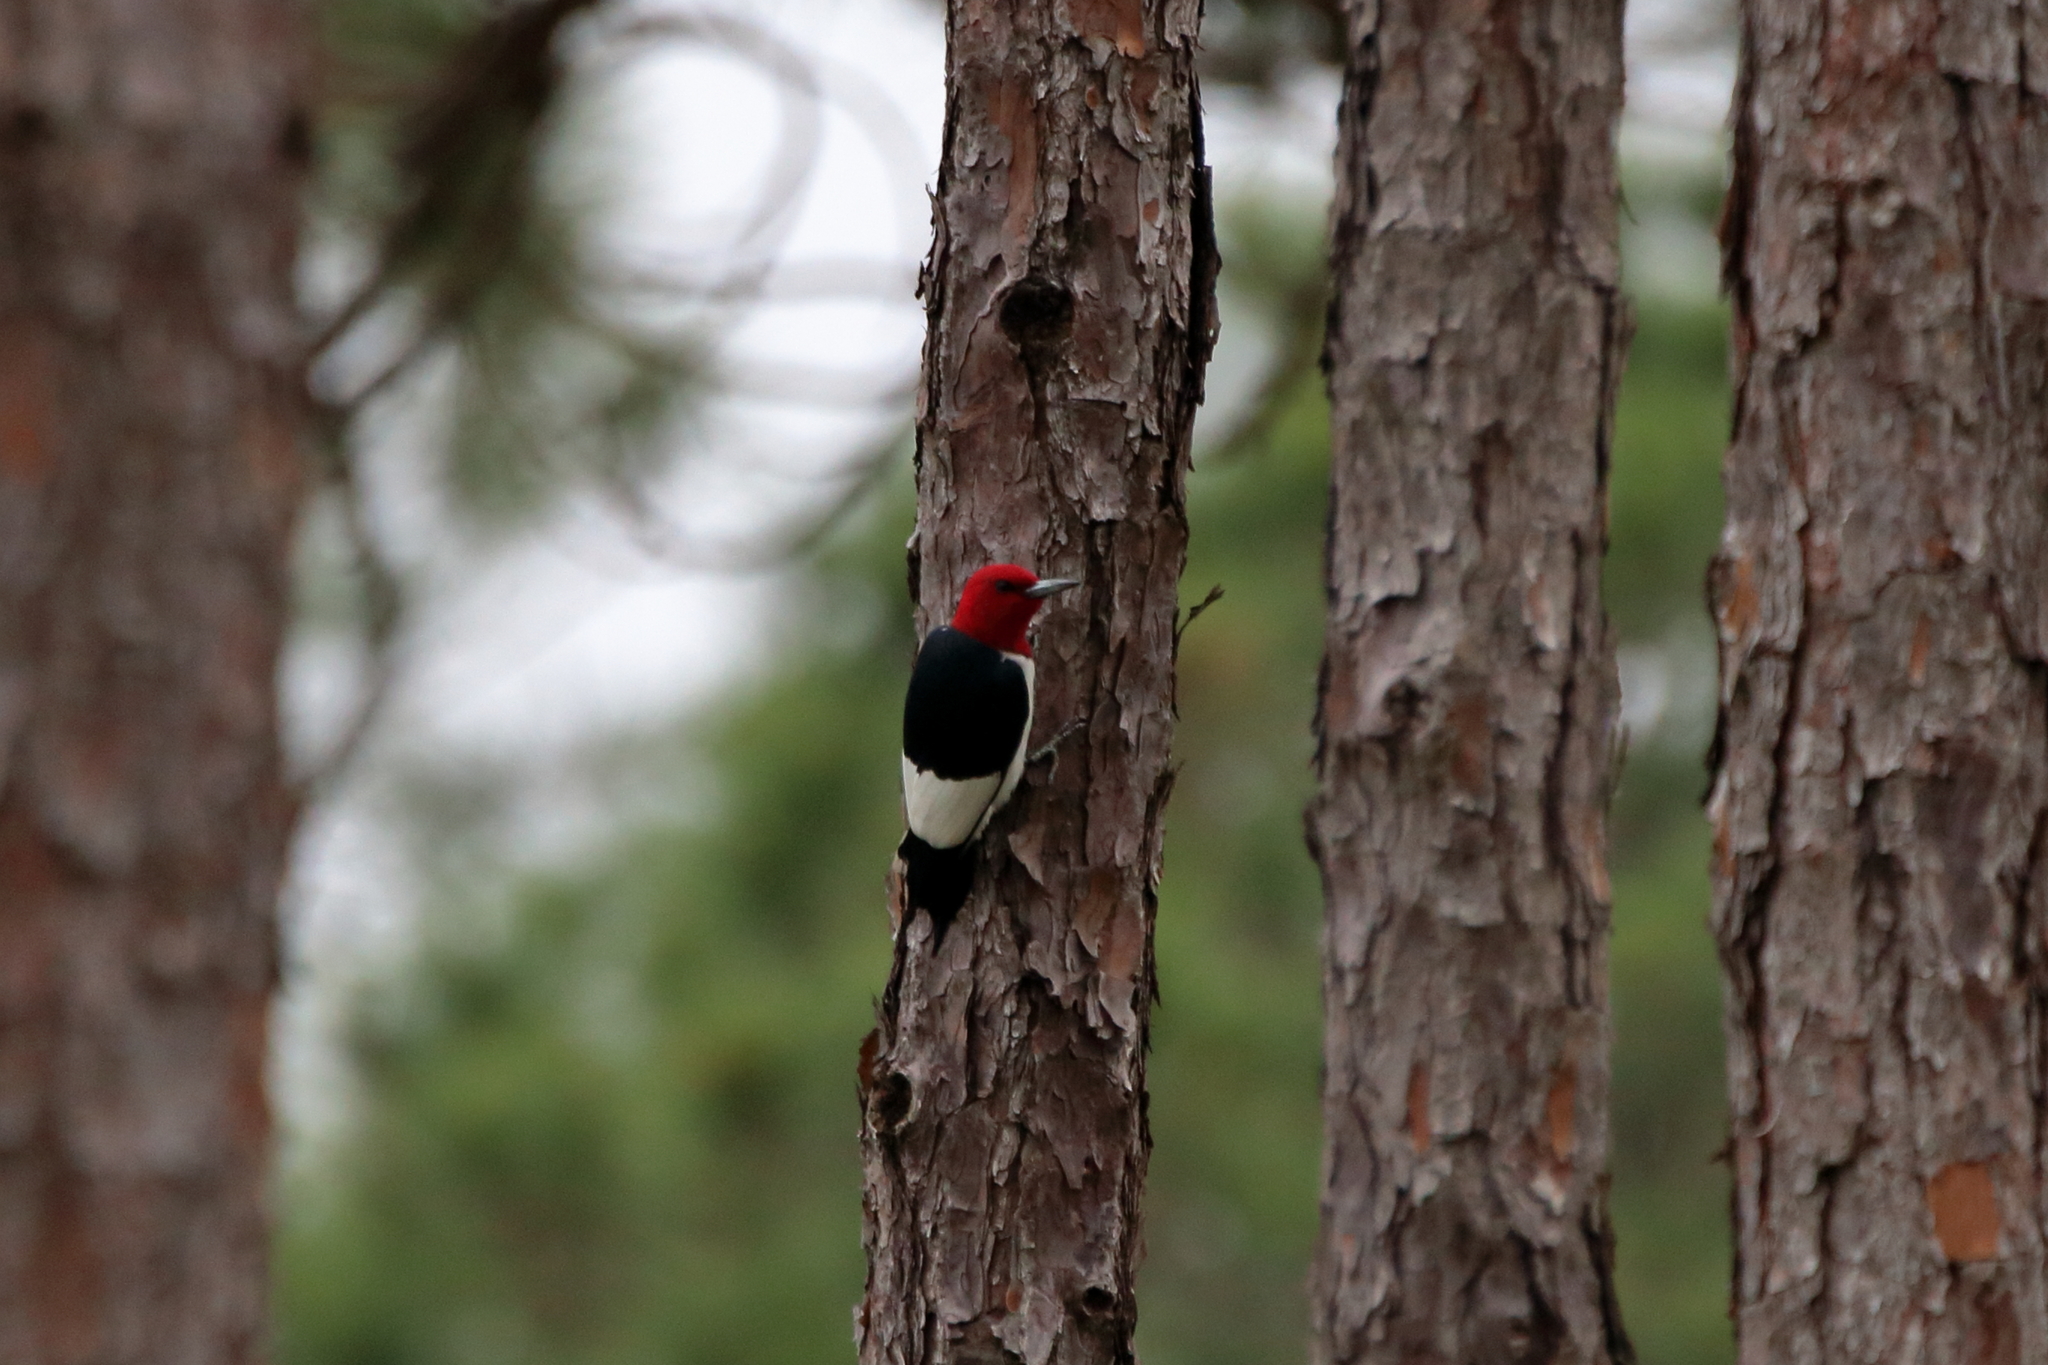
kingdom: Animalia
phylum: Chordata
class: Aves
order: Piciformes
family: Picidae
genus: Melanerpes
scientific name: Melanerpes erythrocephalus
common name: Red-headed woodpecker
